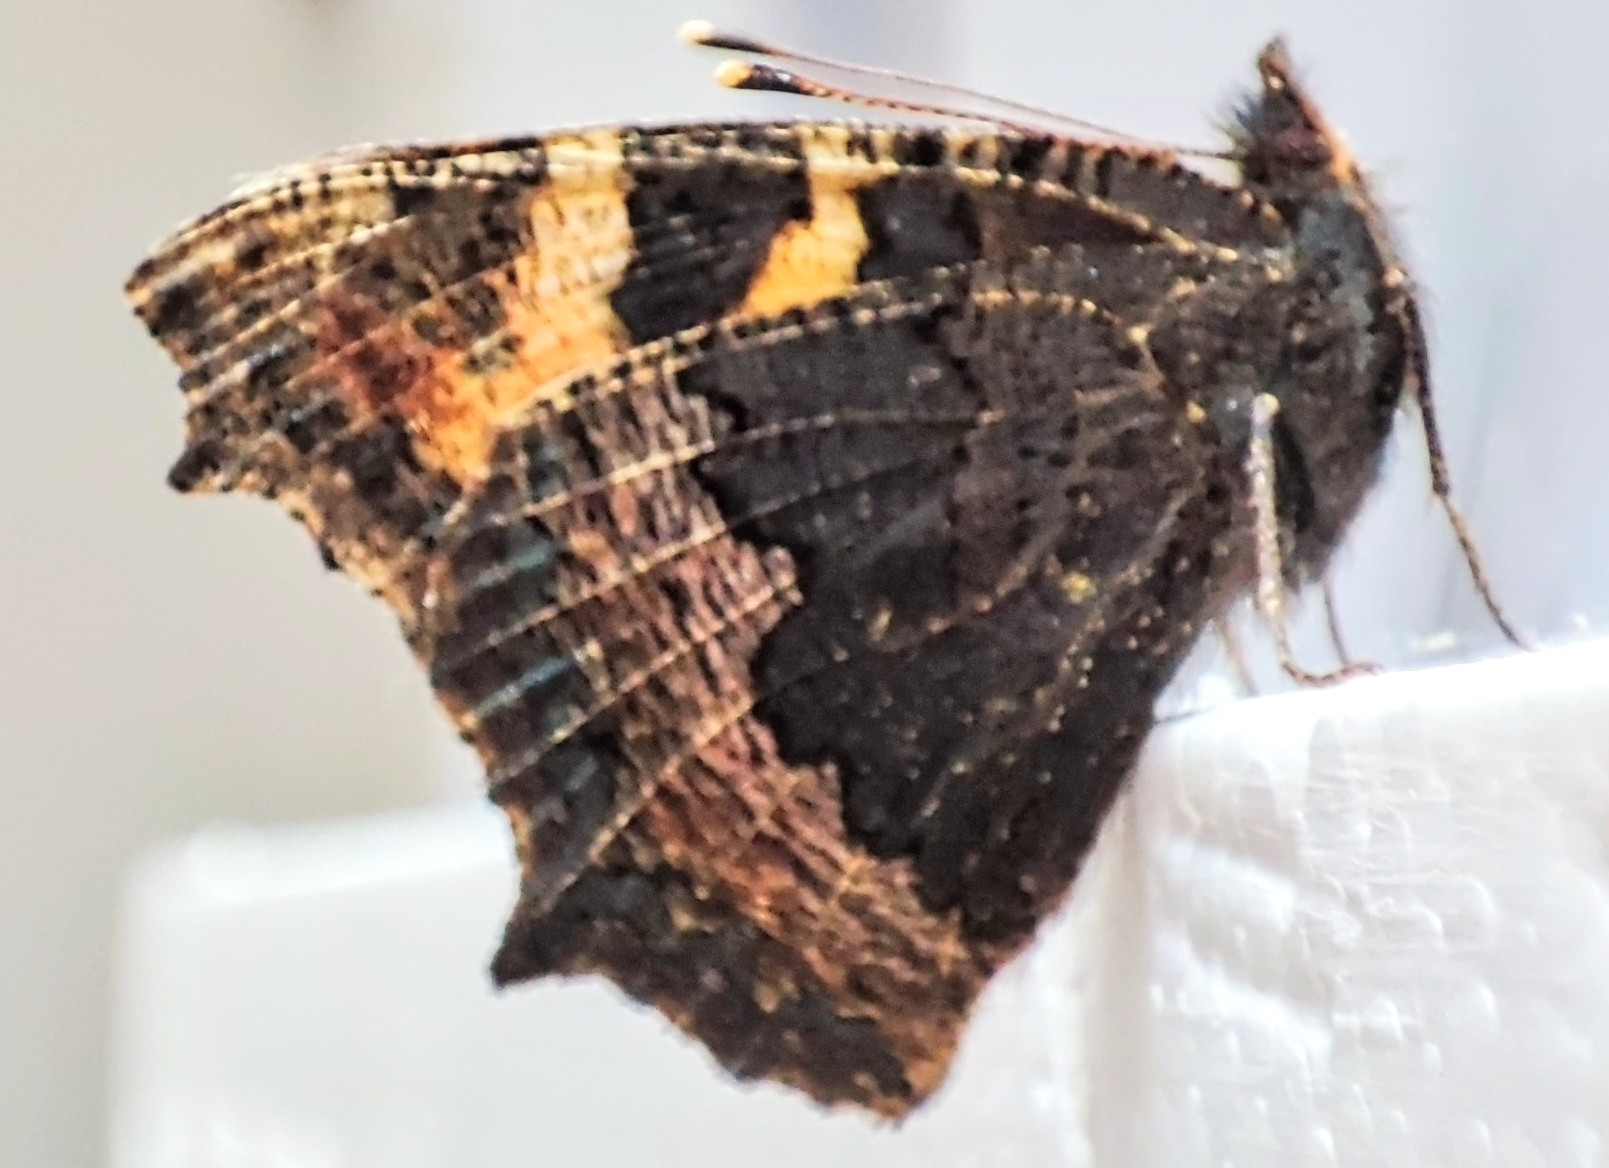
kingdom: Animalia
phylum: Arthropoda
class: Insecta
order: Lepidoptera
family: Nymphalidae
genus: Aglais
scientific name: Aglais urticae
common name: Small tortoiseshell
